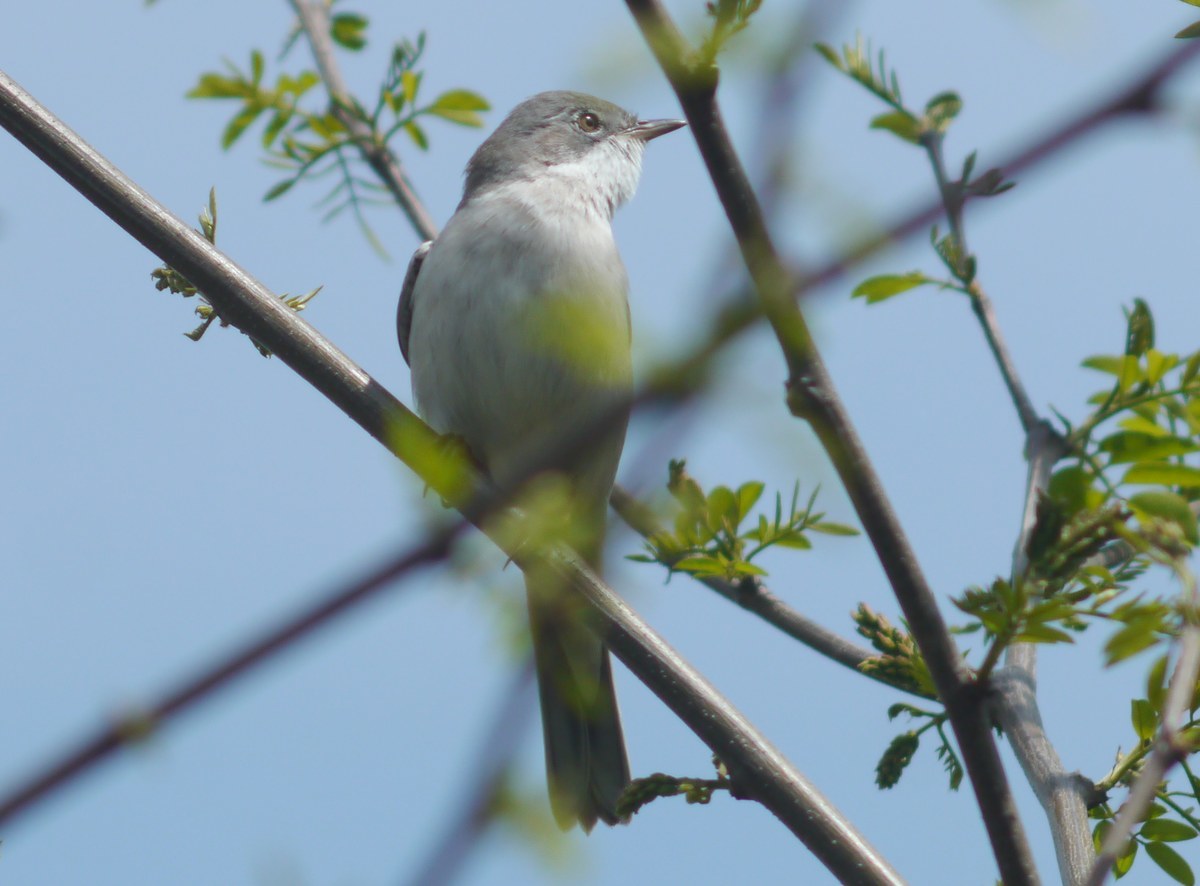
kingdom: Animalia
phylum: Chordata
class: Aves
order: Passeriformes
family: Sylviidae
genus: Sylvia
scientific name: Sylvia communis
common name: Common whitethroat
